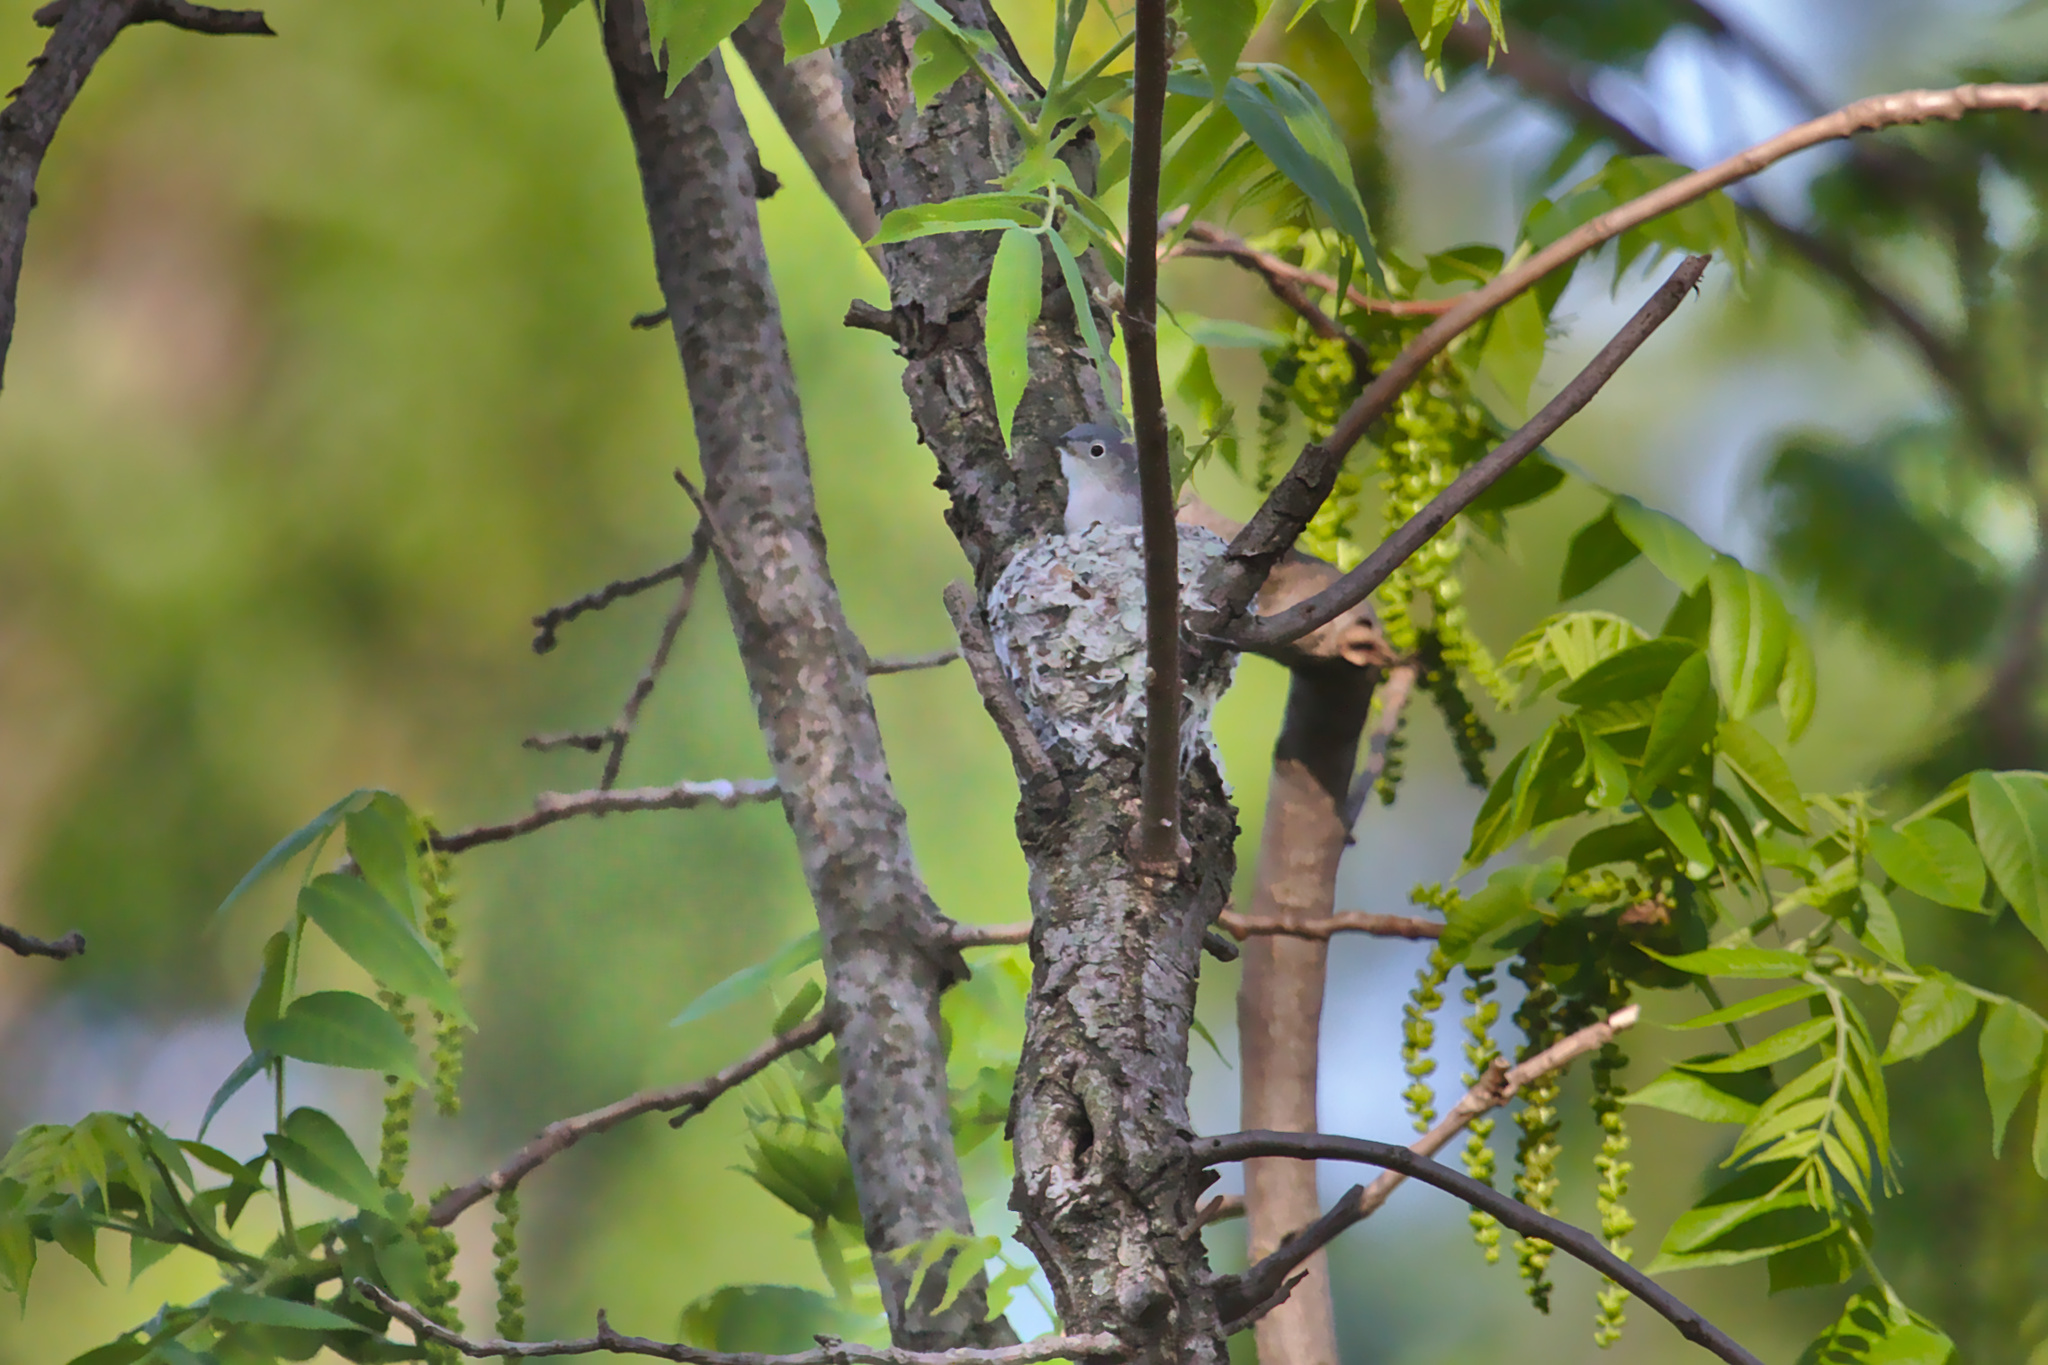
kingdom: Animalia
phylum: Chordata
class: Aves
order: Passeriformes
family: Polioptilidae
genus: Polioptila
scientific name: Polioptila caerulea
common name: Blue-gray gnatcatcher
